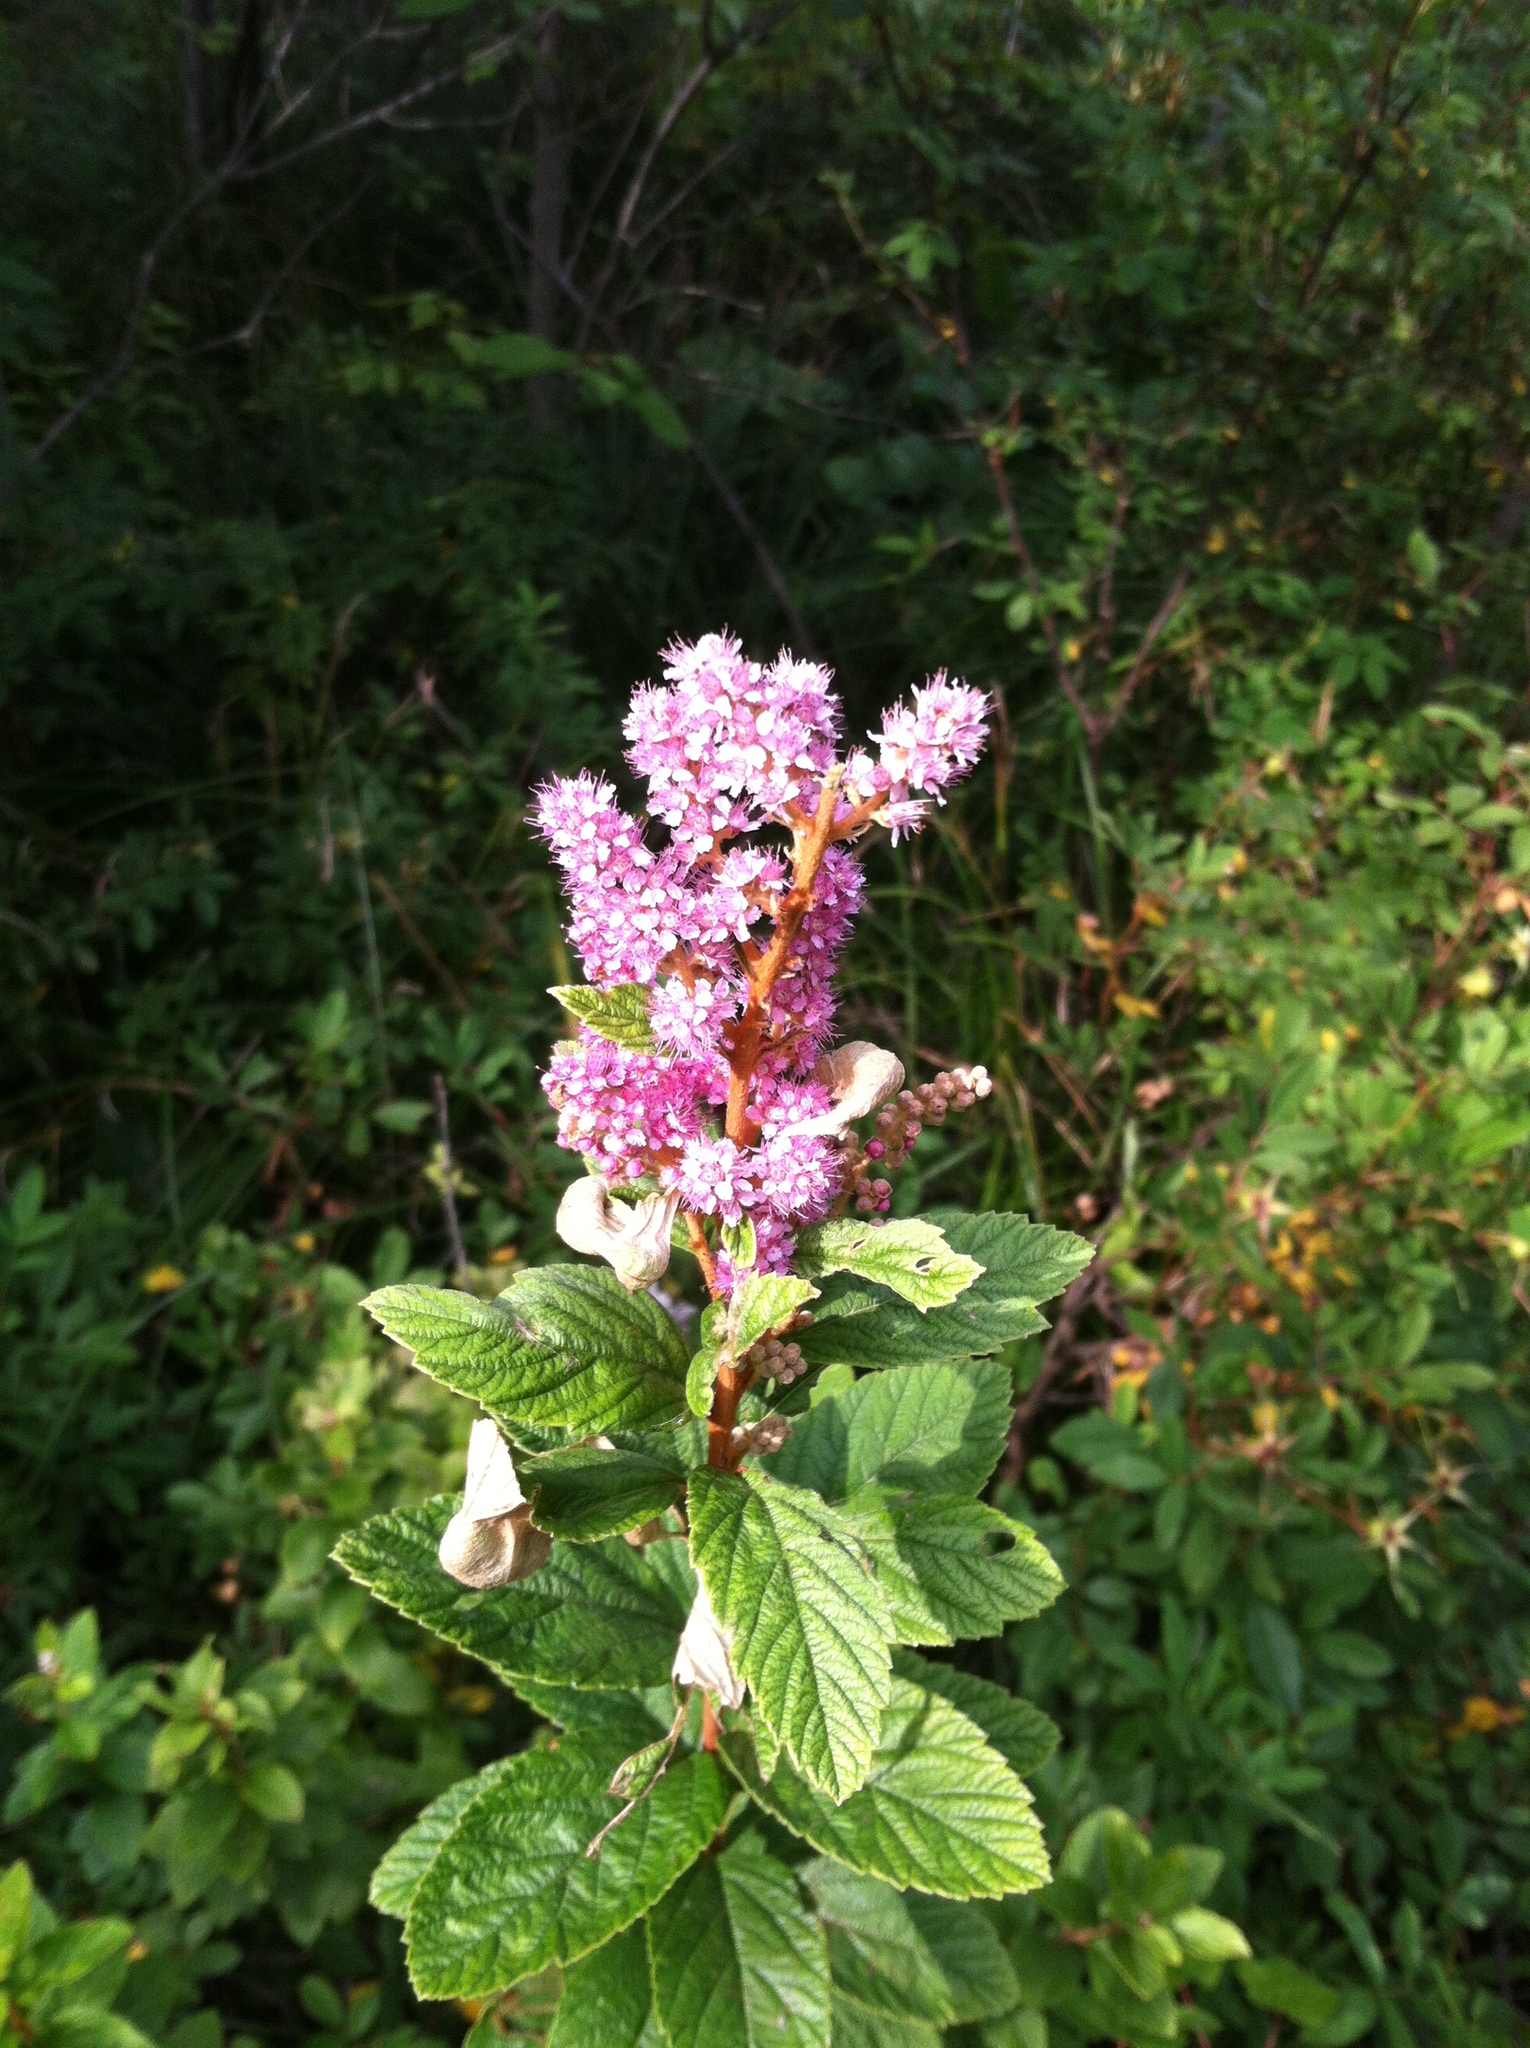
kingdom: Plantae
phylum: Tracheophyta
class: Magnoliopsida
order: Rosales
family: Rosaceae
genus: Spiraea
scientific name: Spiraea tomentosa
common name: Hardhack
